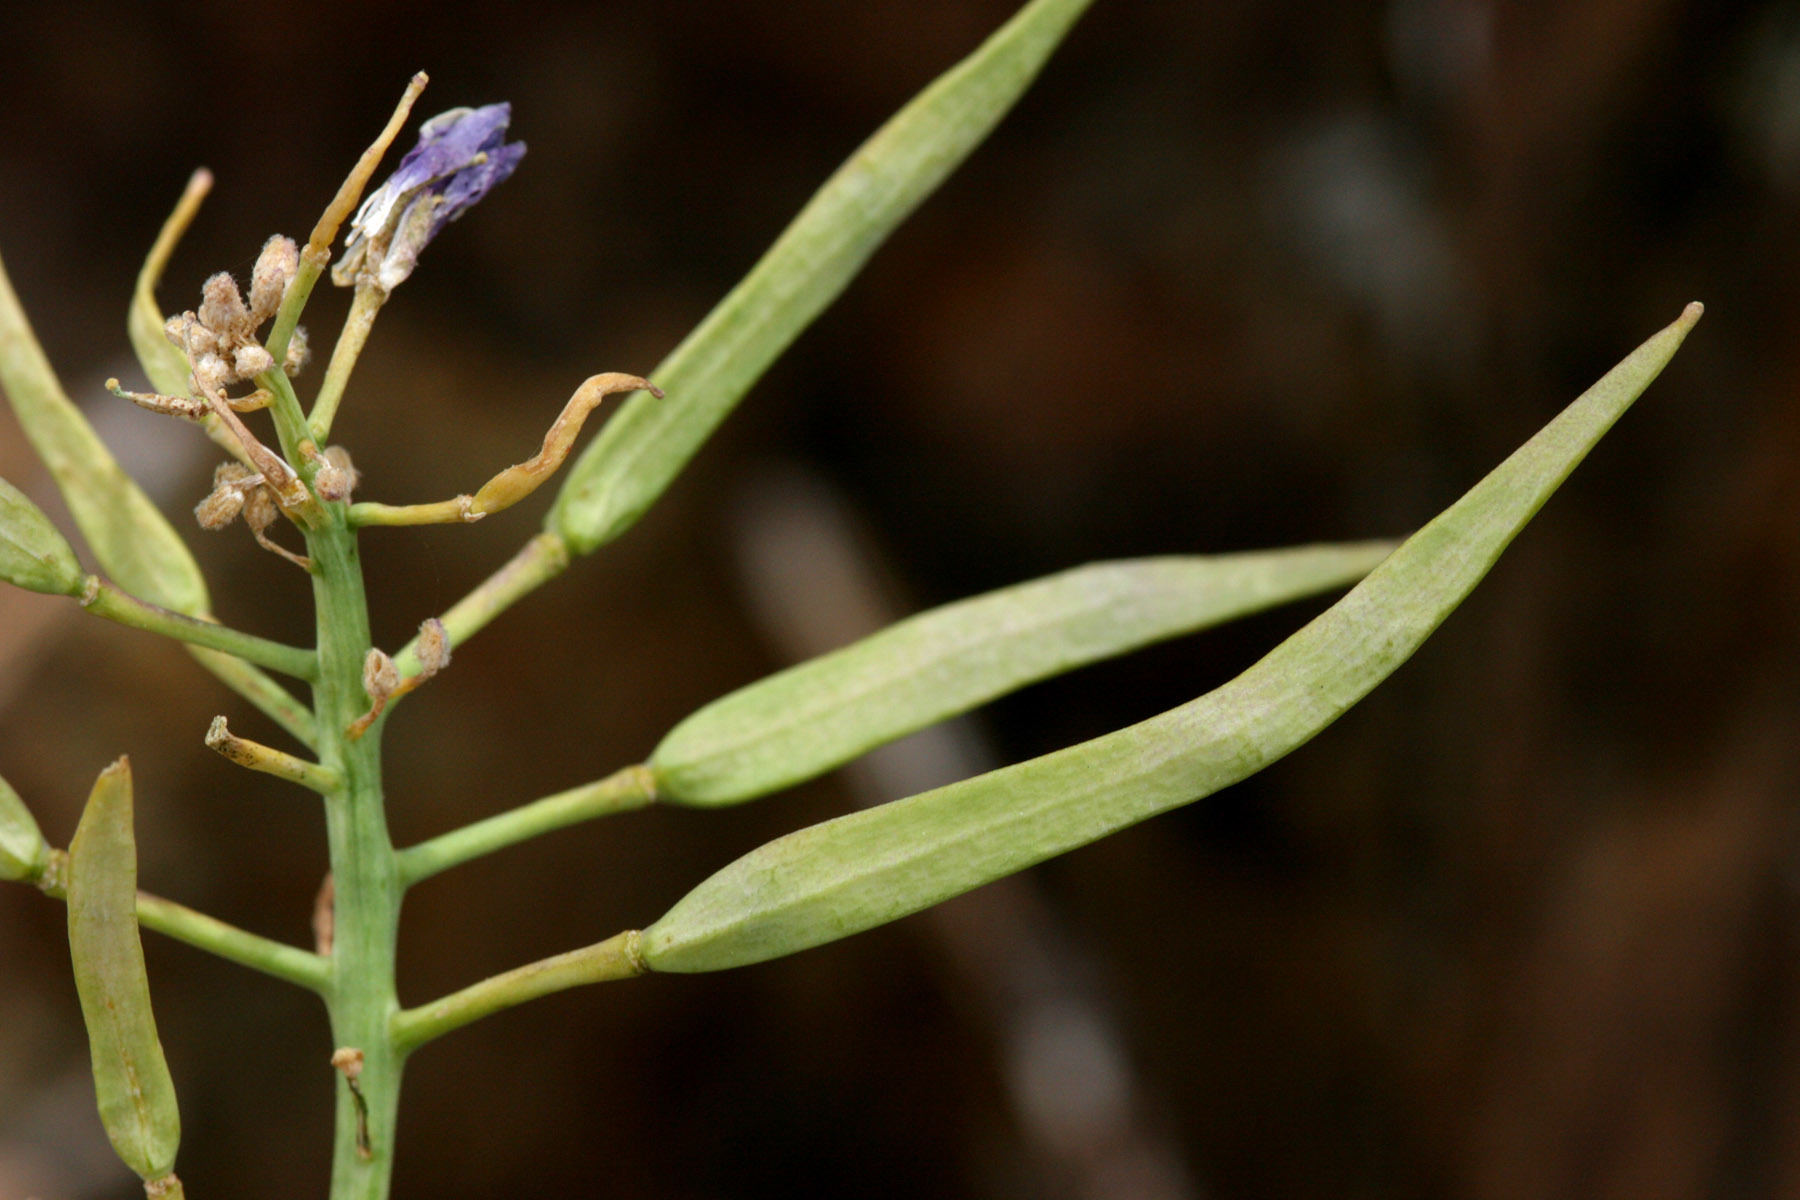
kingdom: Plantae
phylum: Tracheophyta
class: Magnoliopsida
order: Brassicales
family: Brassicaceae
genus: Phoenicaulis
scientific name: Phoenicaulis cheiranthoides
